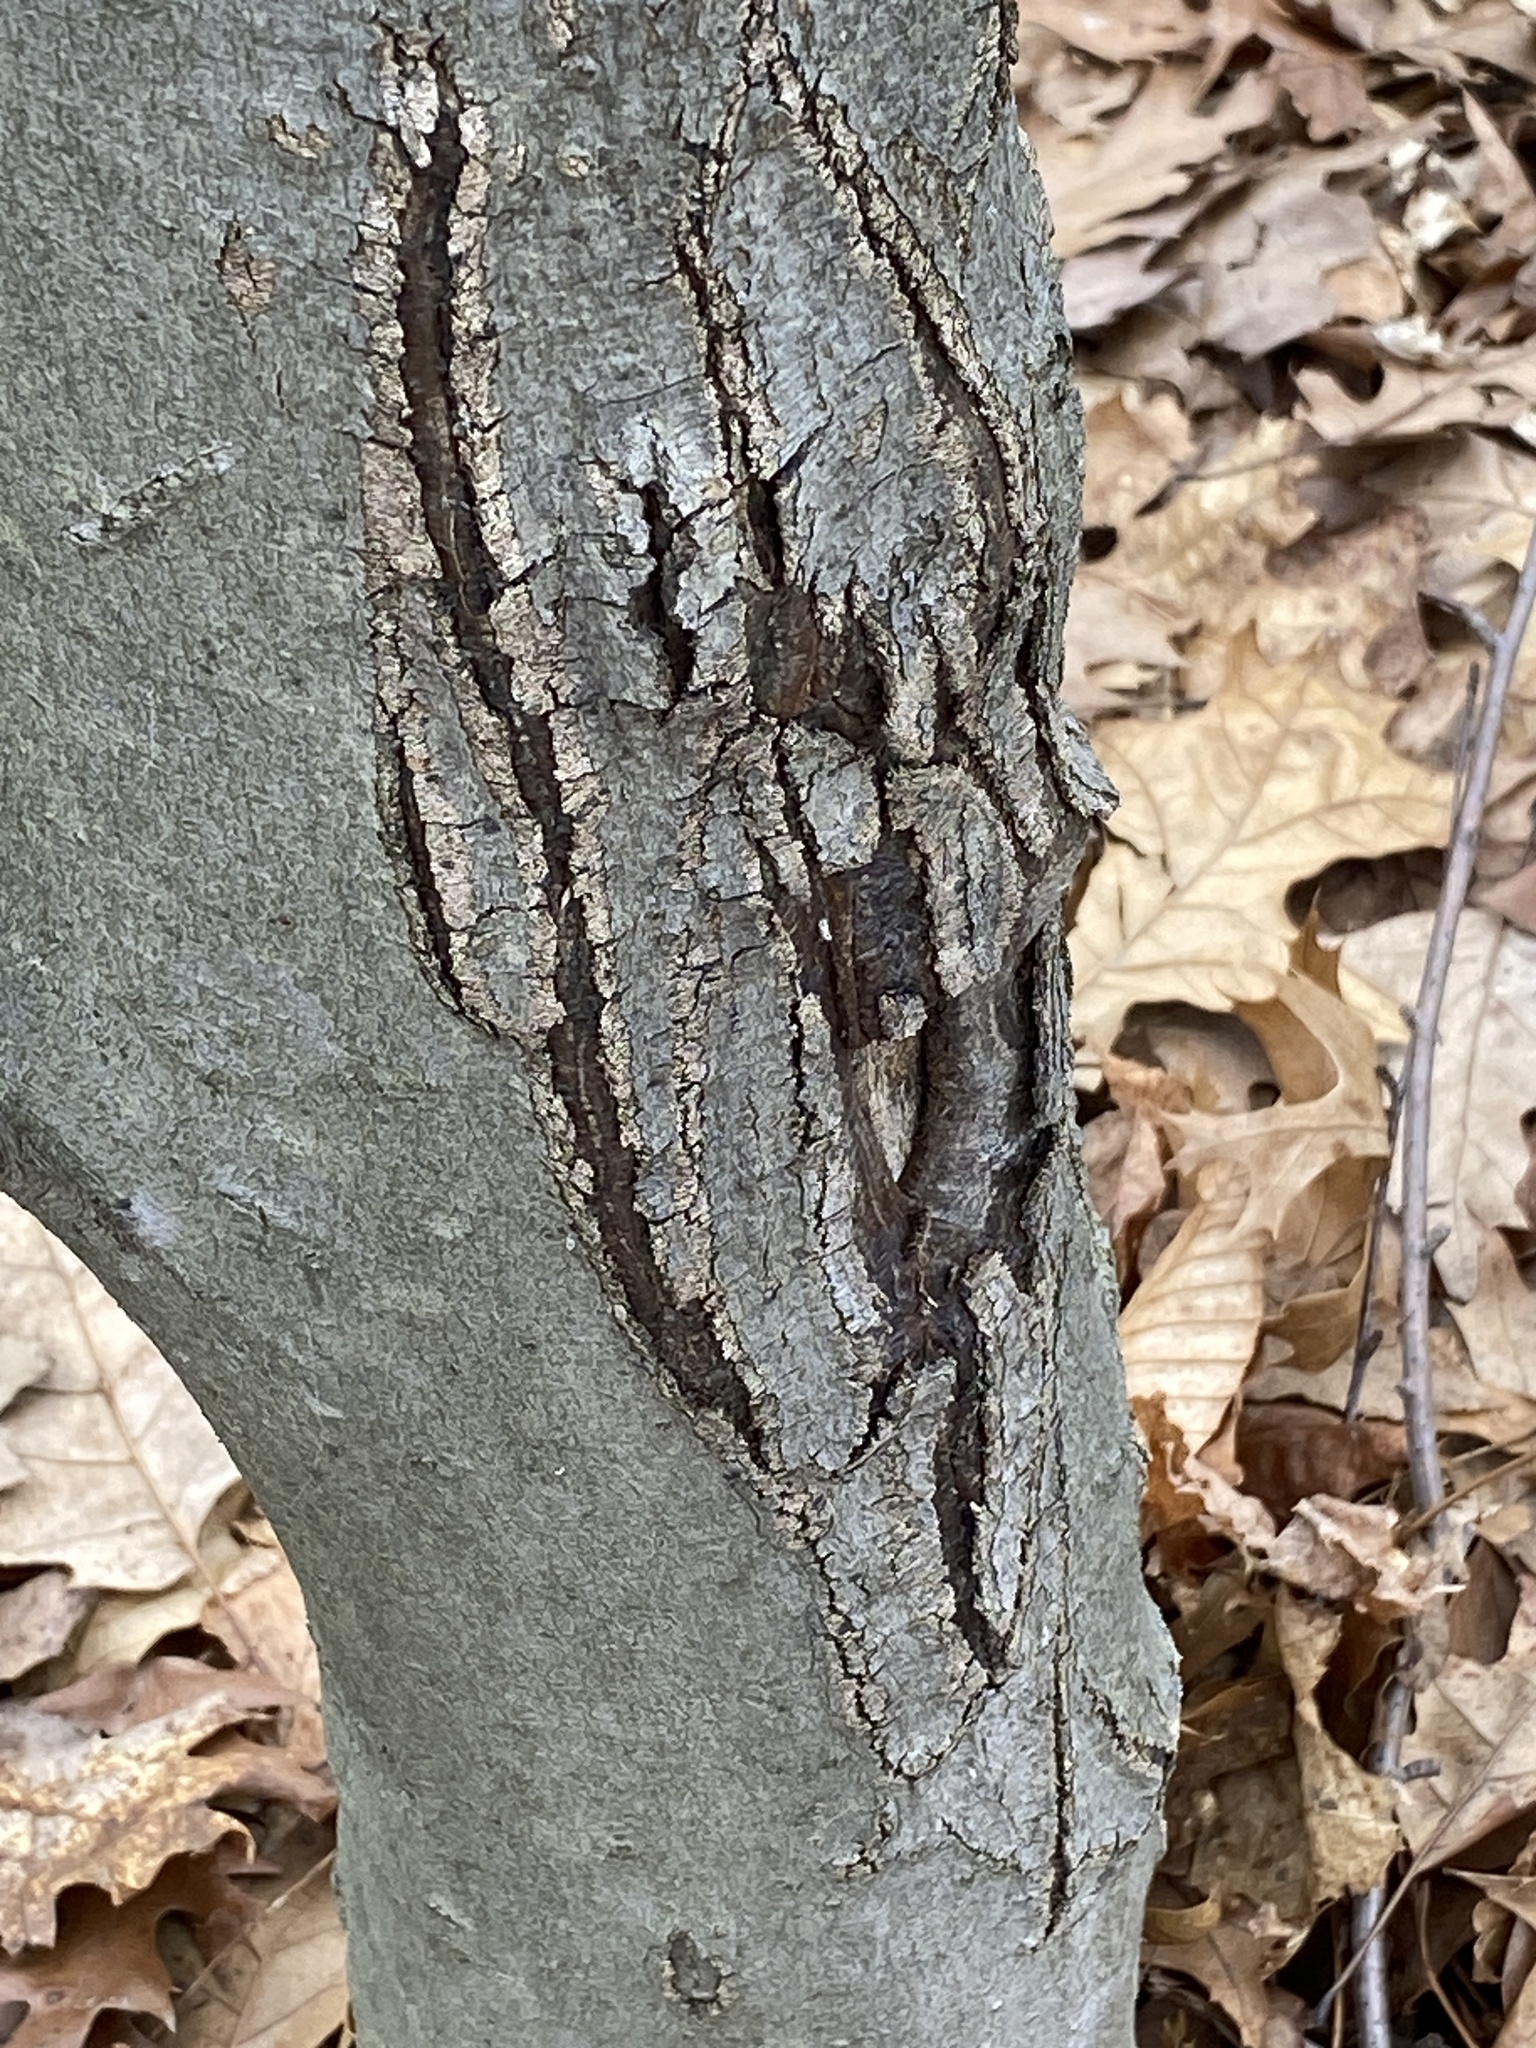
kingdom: Plantae
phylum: Tracheophyta
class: Magnoliopsida
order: Fagales
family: Fagaceae
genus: Fagus
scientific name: Fagus grandifolia
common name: American beech
